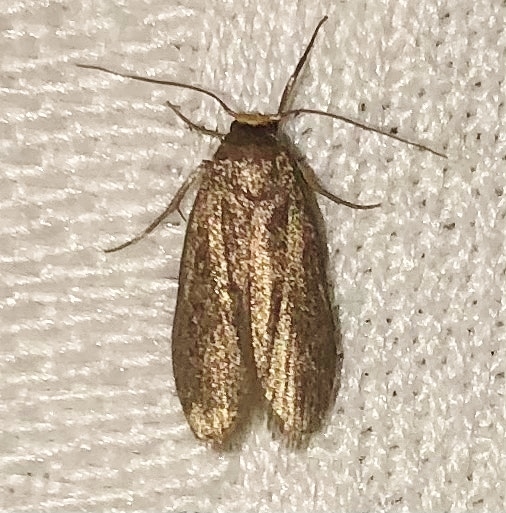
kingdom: Animalia
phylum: Arthropoda
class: Insecta
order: Lepidoptera
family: Pyralidae
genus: Achroia
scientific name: Achroia grisella
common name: Lesser wax moth
